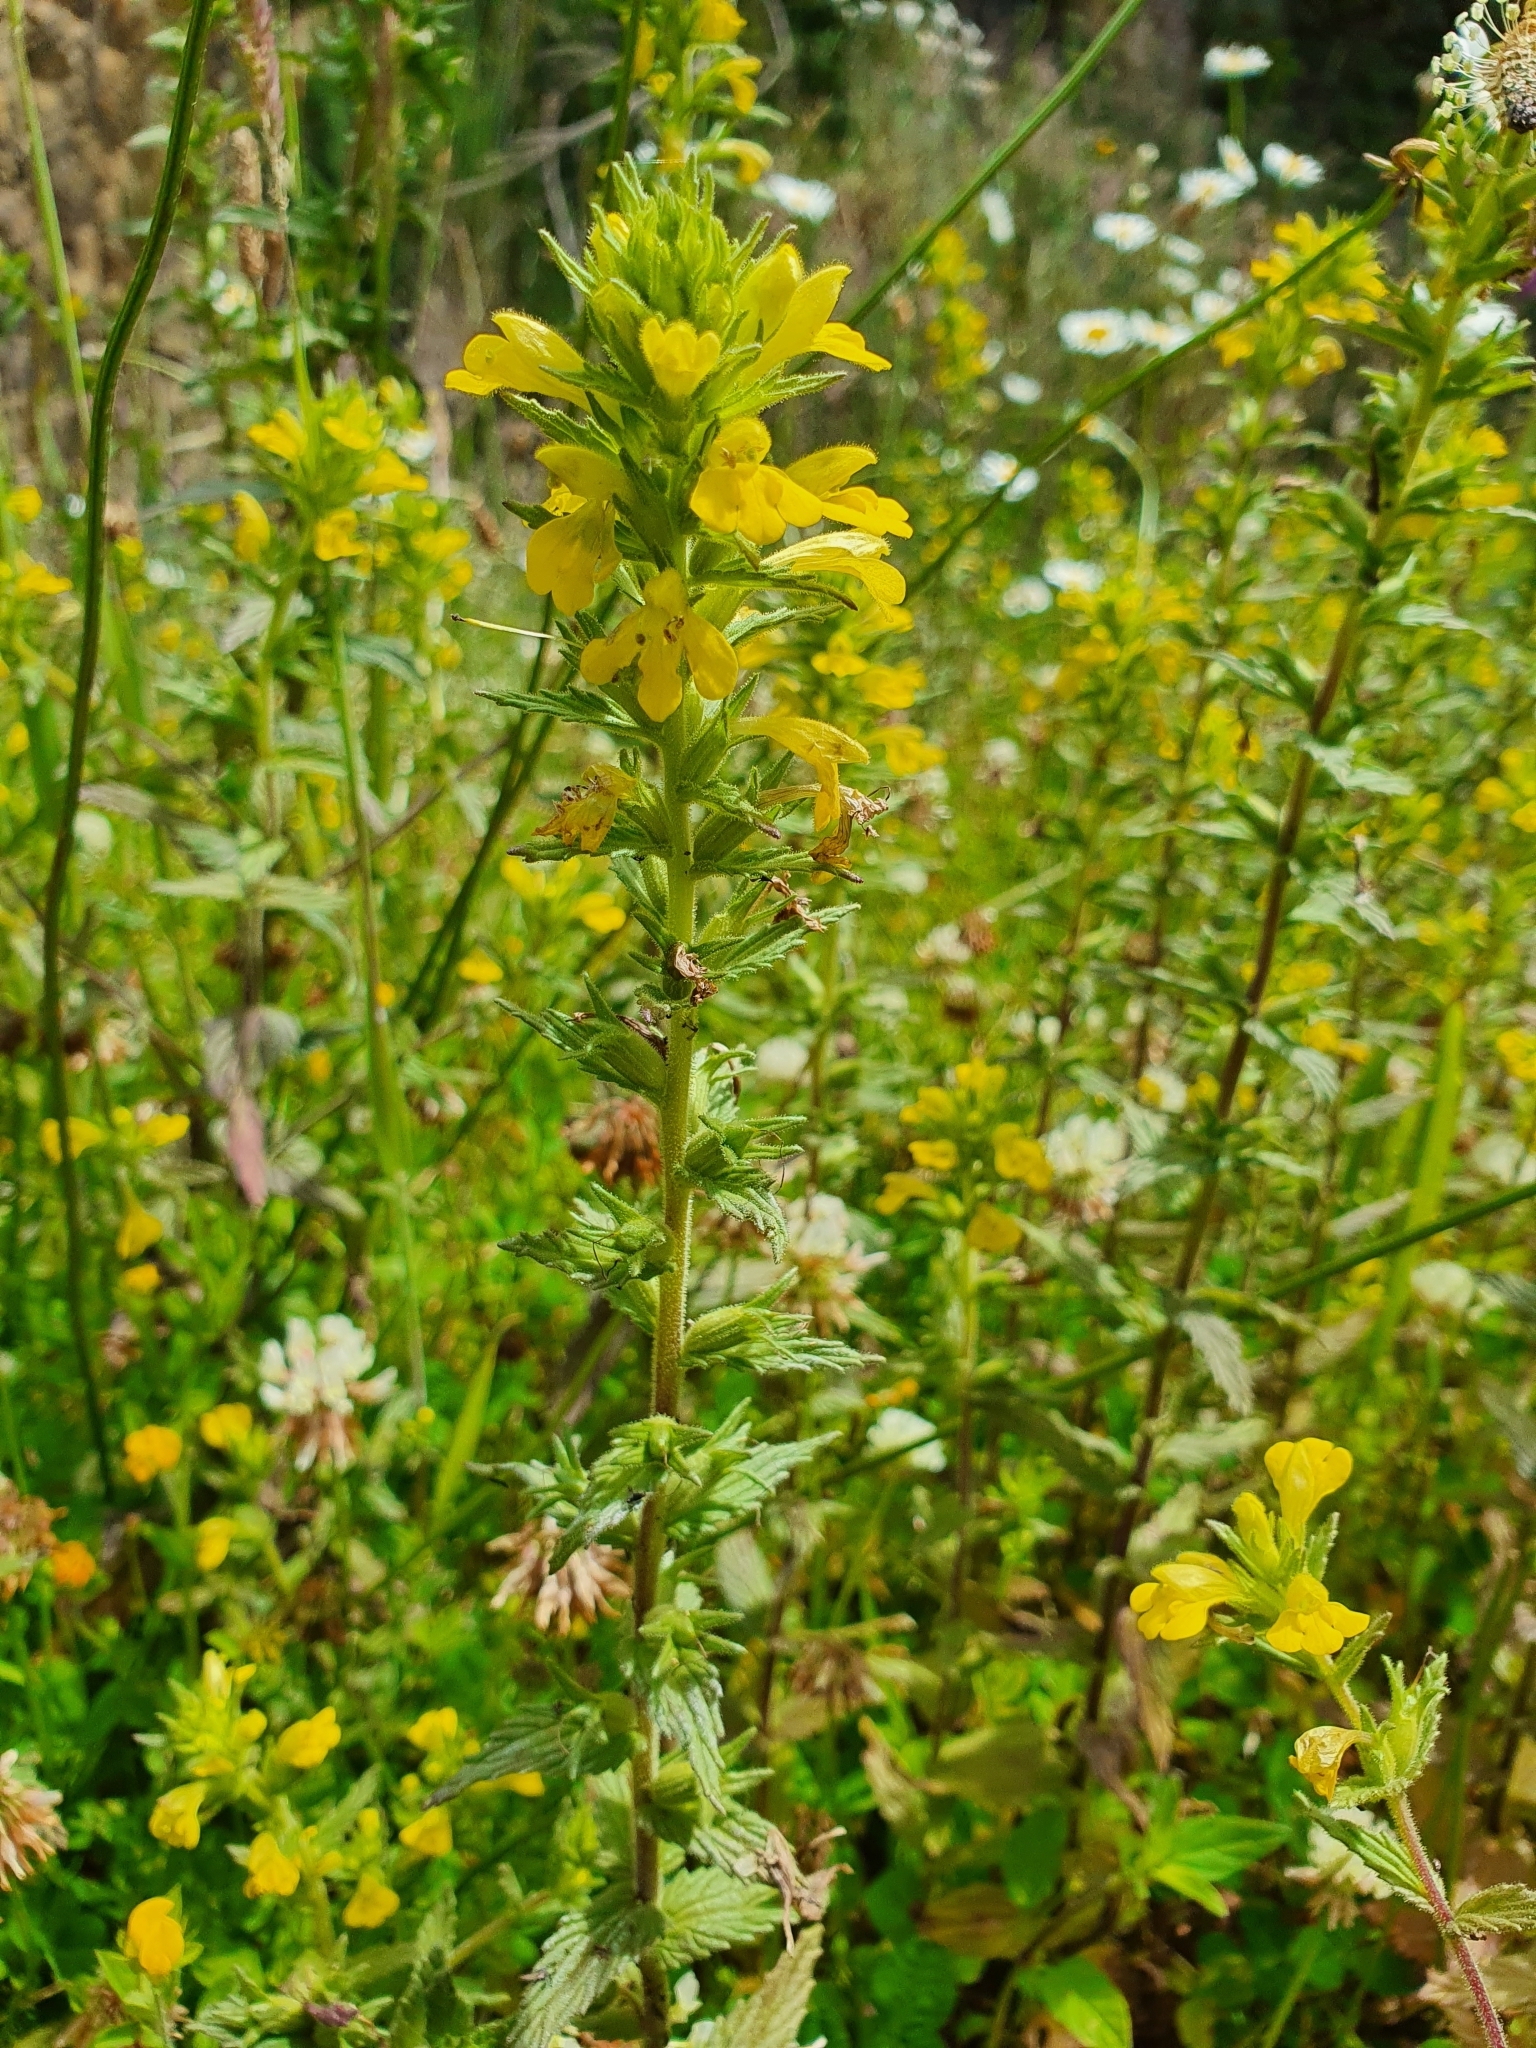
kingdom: Plantae
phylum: Tracheophyta
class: Magnoliopsida
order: Lamiales
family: Orobanchaceae
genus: Bellardia
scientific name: Bellardia viscosa
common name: Sticky parentucellia
